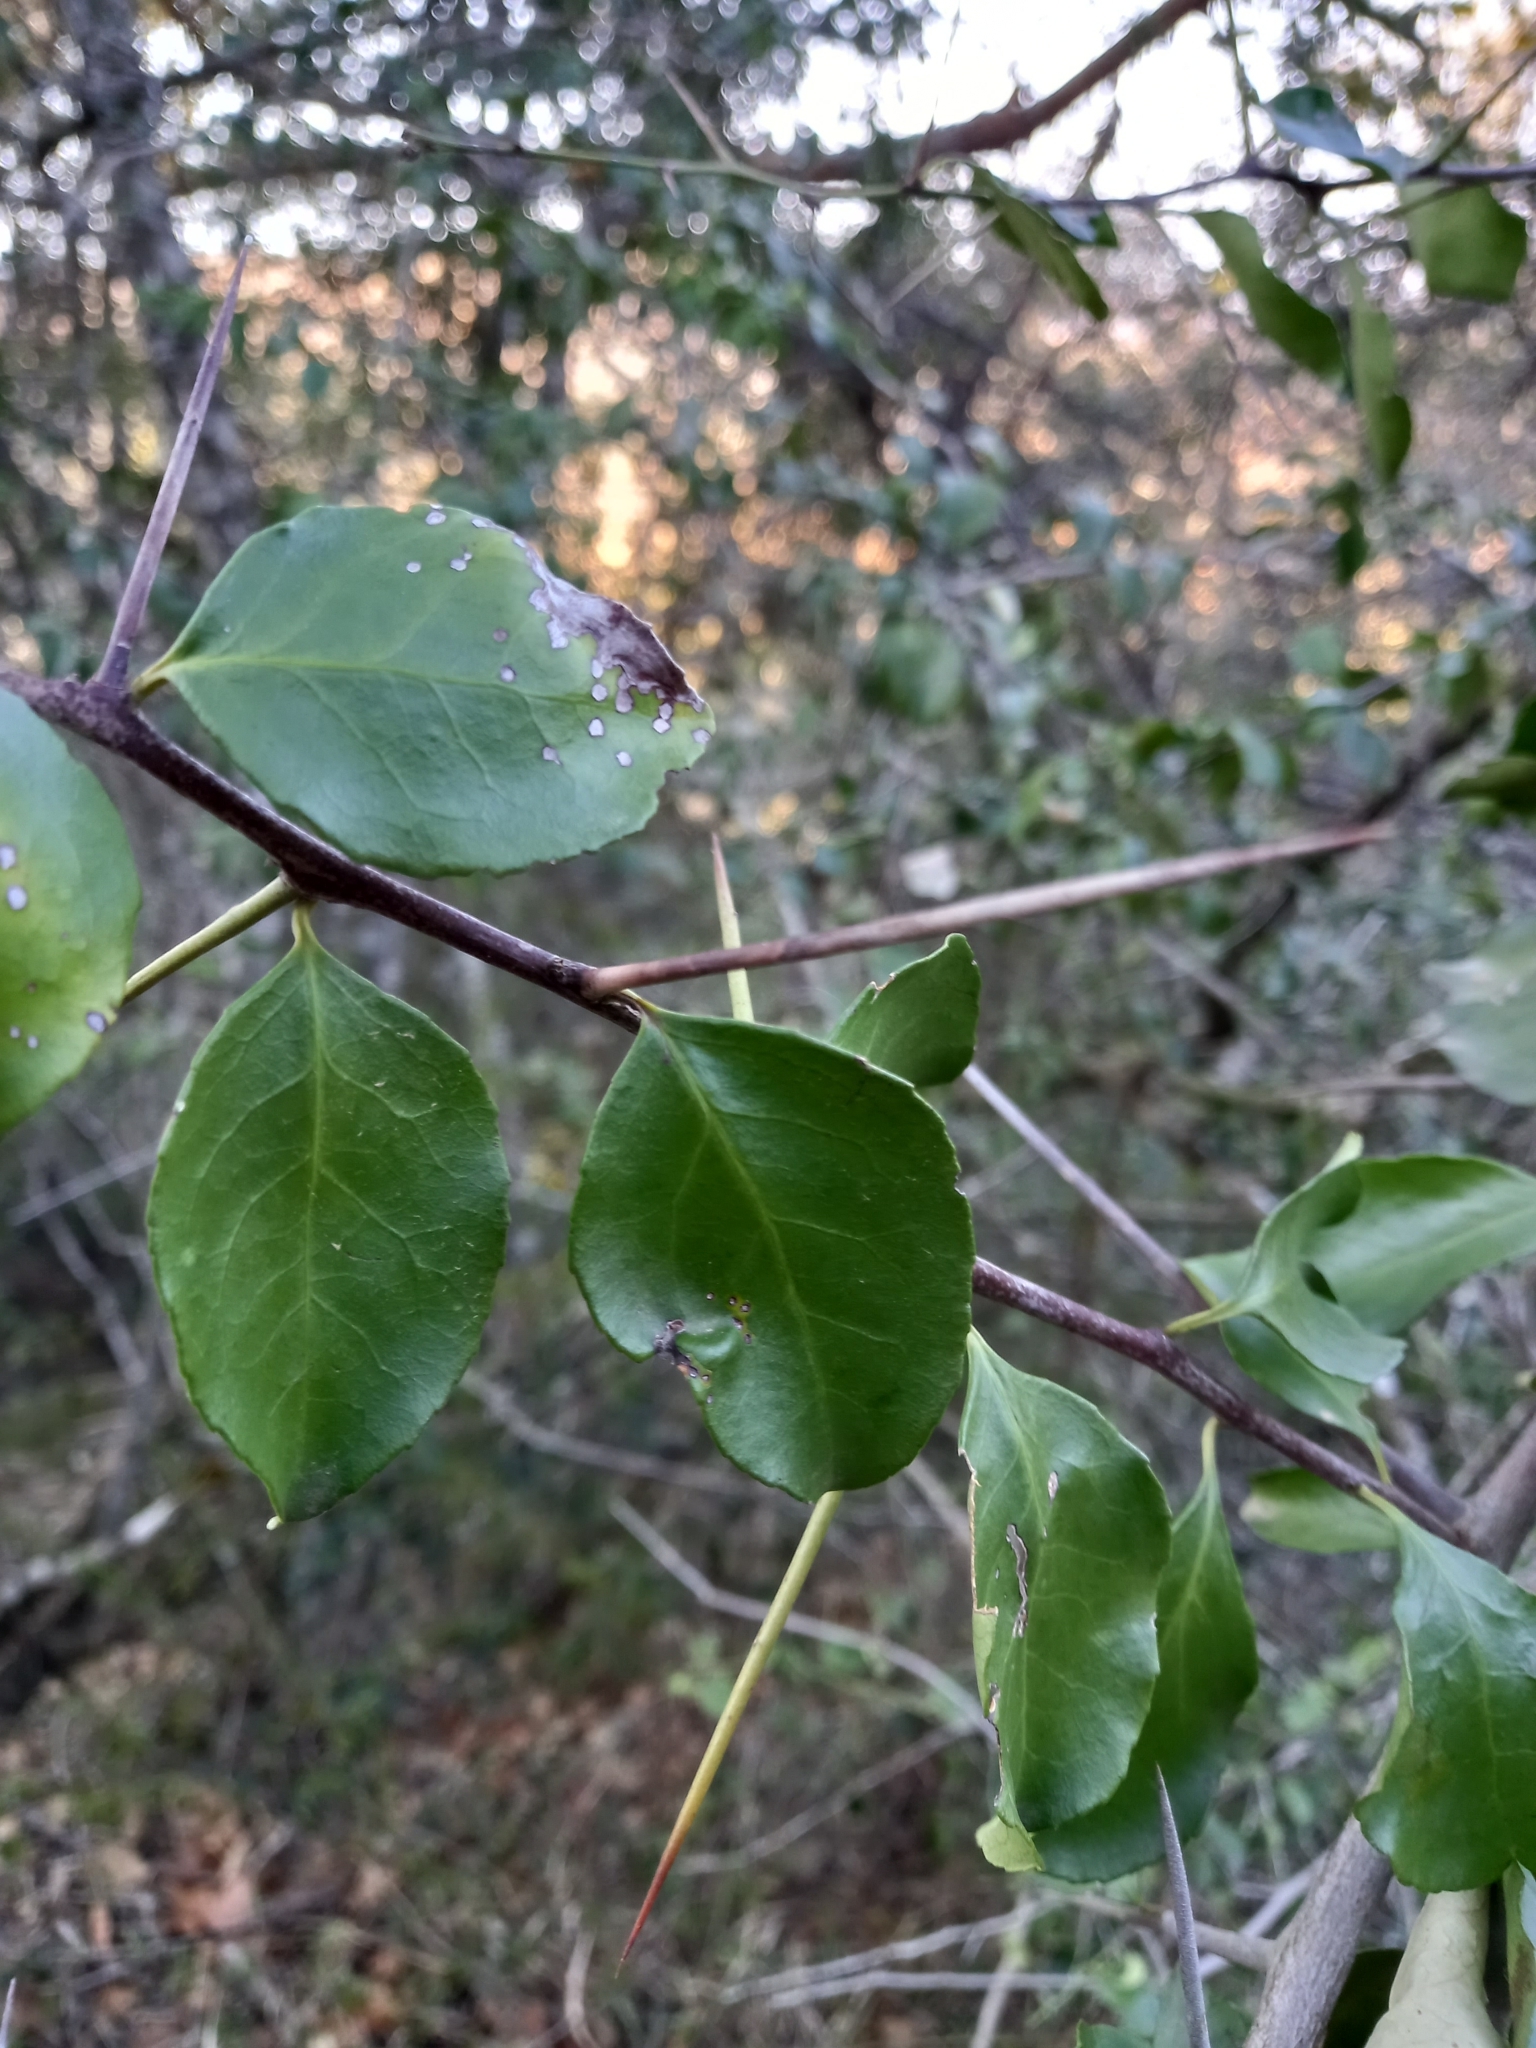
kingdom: Plantae
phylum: Tracheophyta
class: Magnoliopsida
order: Celastrales
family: Celastraceae
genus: Gymnosporia
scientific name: Gymnosporia nemorosa
